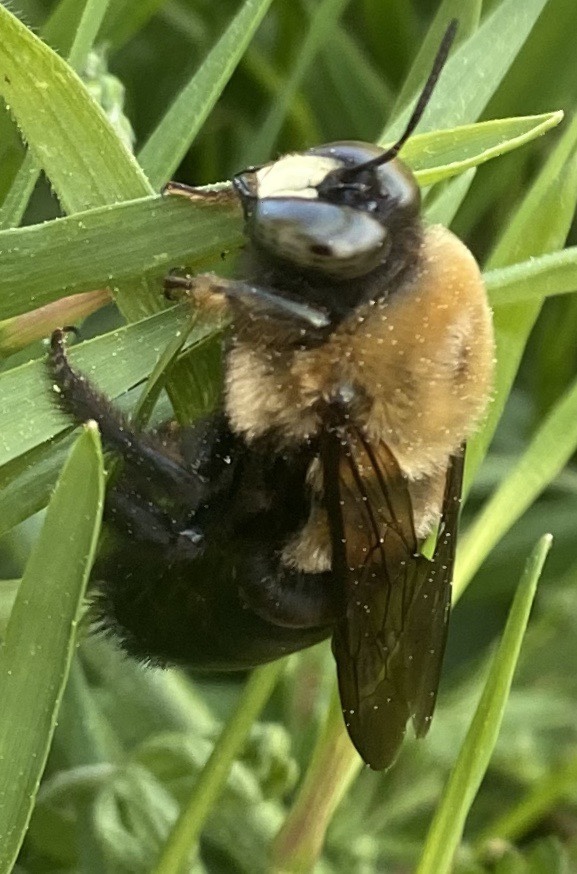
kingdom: Animalia
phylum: Arthropoda
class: Insecta
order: Hymenoptera
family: Apidae
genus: Xylocopa
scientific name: Xylocopa virginica
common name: Carpenter bee
